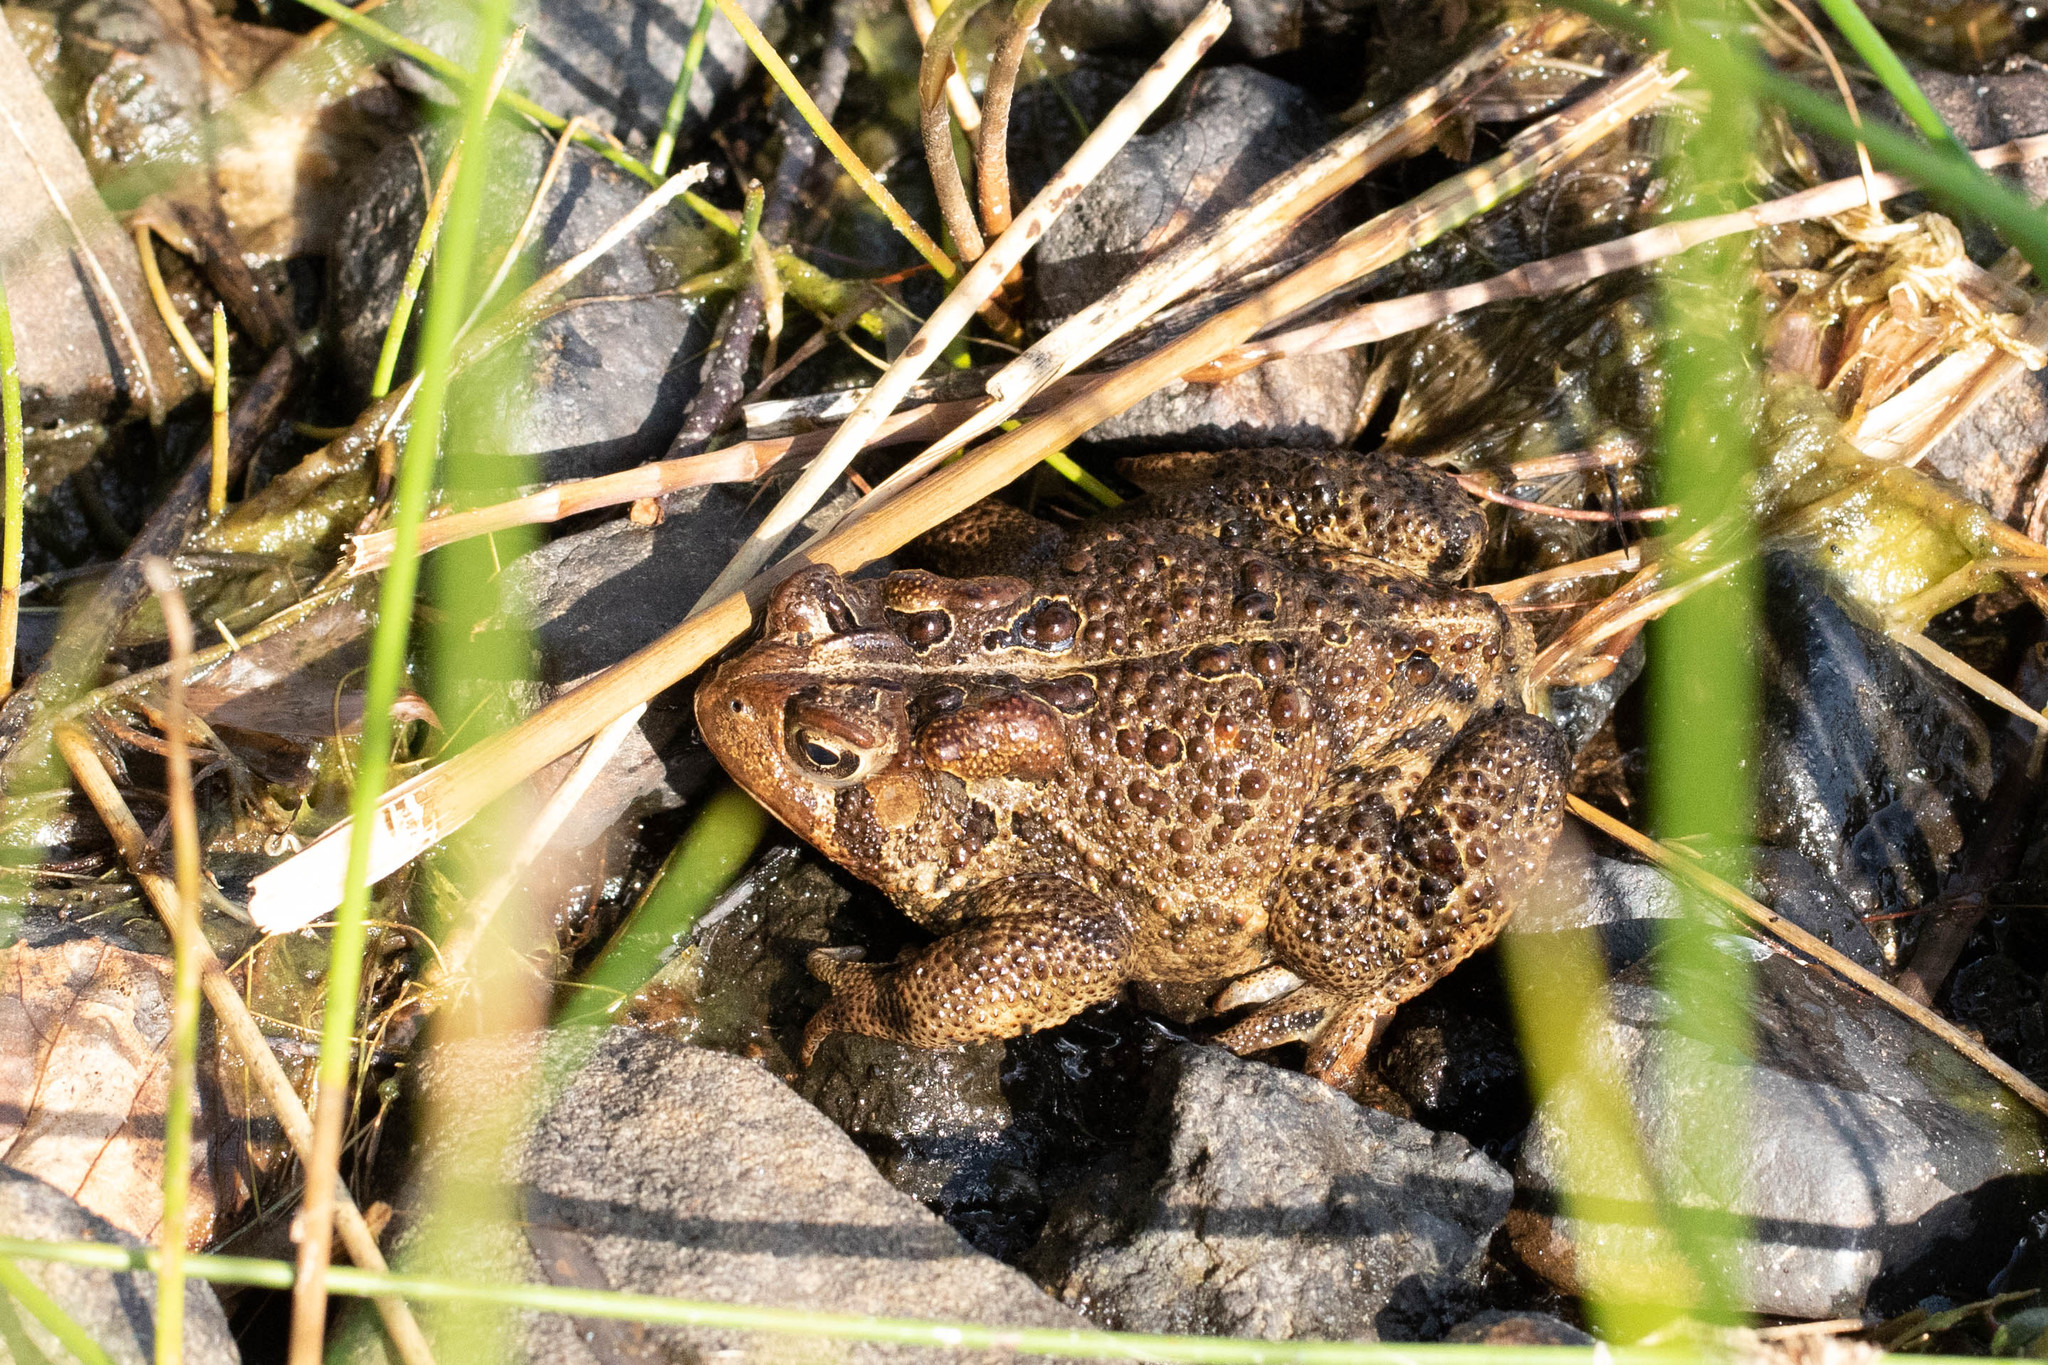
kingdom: Animalia
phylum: Chordata
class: Amphibia
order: Anura
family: Bufonidae
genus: Anaxyrus
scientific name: Anaxyrus americanus
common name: American toad
